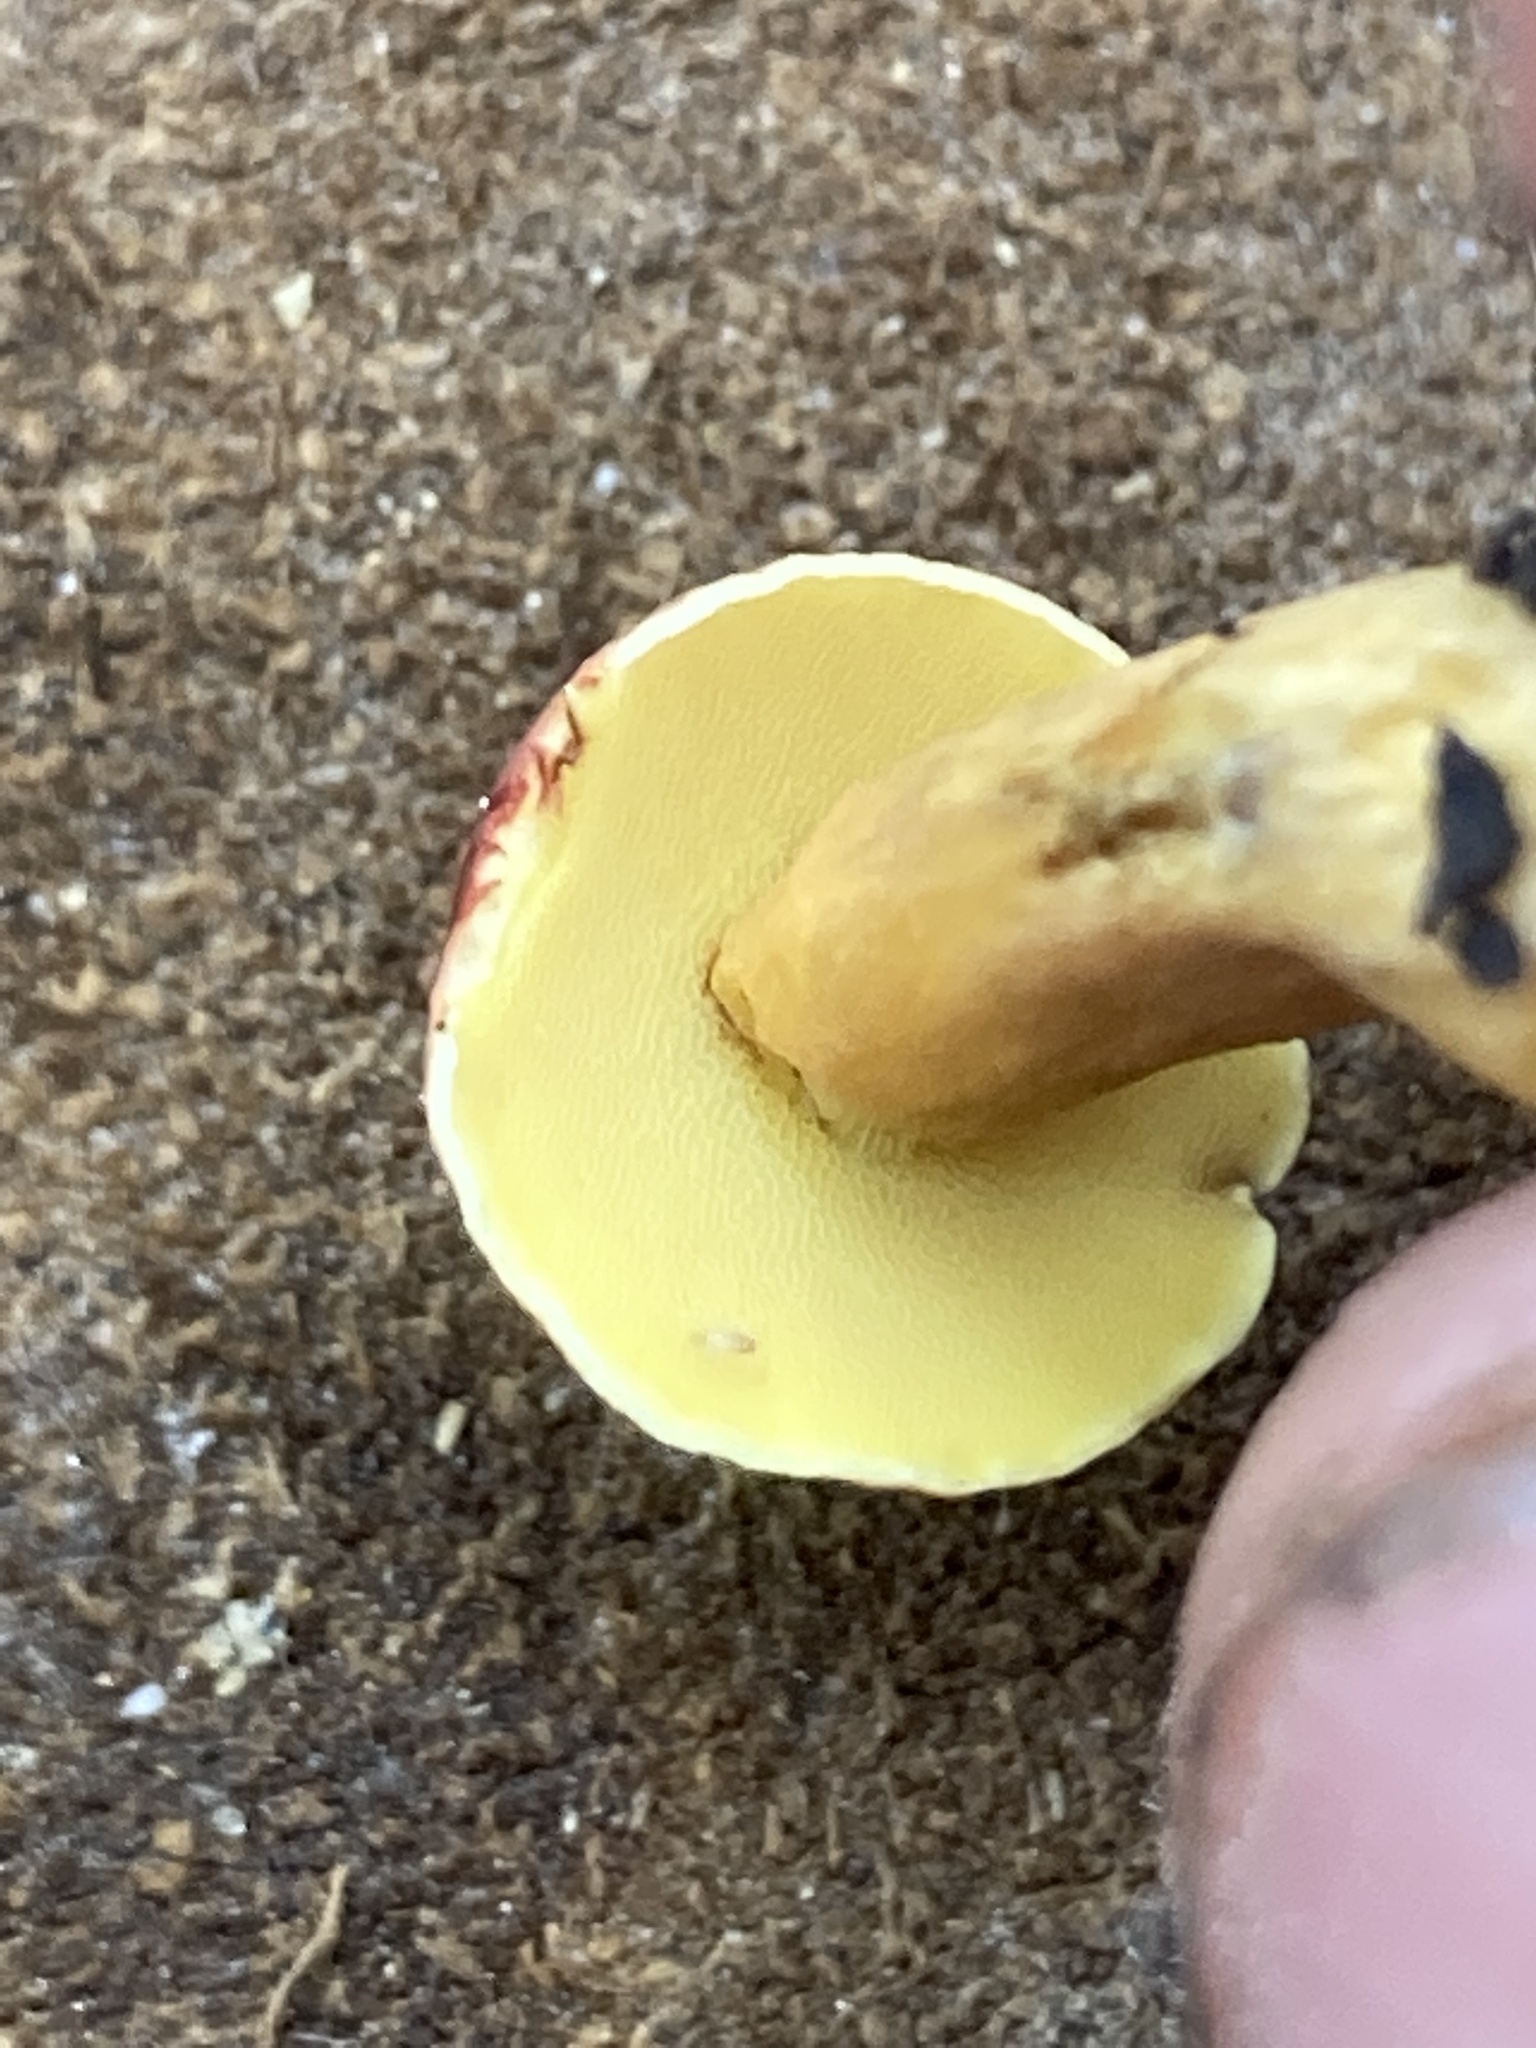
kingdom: Fungi
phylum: Basidiomycota
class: Agaricomycetes
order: Boletales
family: Boletaceae
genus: Hortiboletus
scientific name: Hortiboletus rubellus
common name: Ruby bolete
